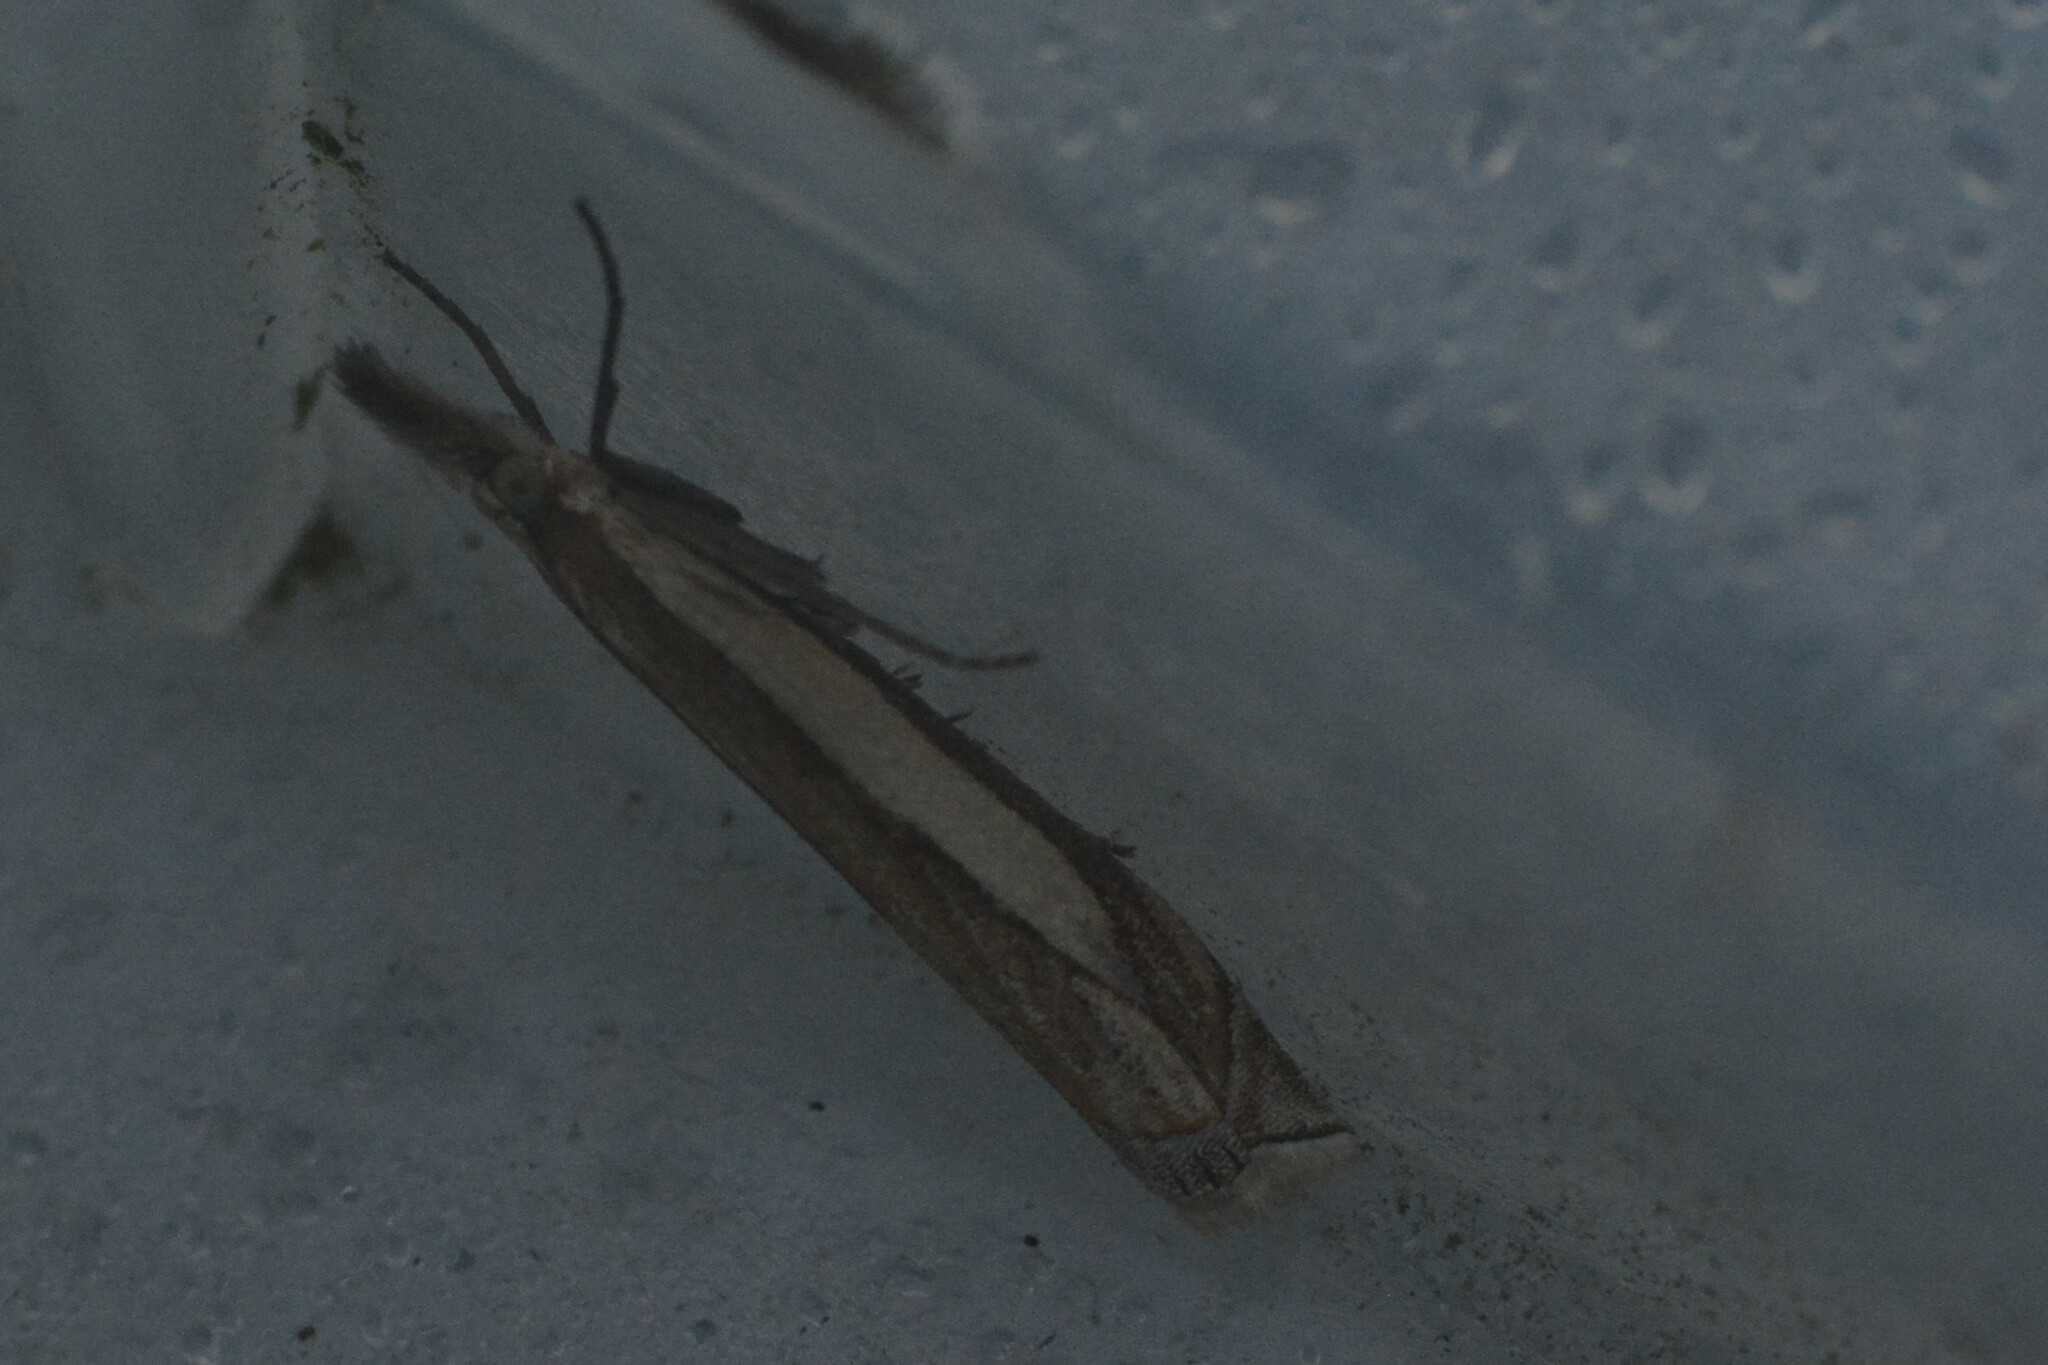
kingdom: Animalia
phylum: Arthropoda
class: Insecta
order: Lepidoptera
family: Crambidae
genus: Crambus
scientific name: Crambus pascuella
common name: Inlaid grass-veneer
